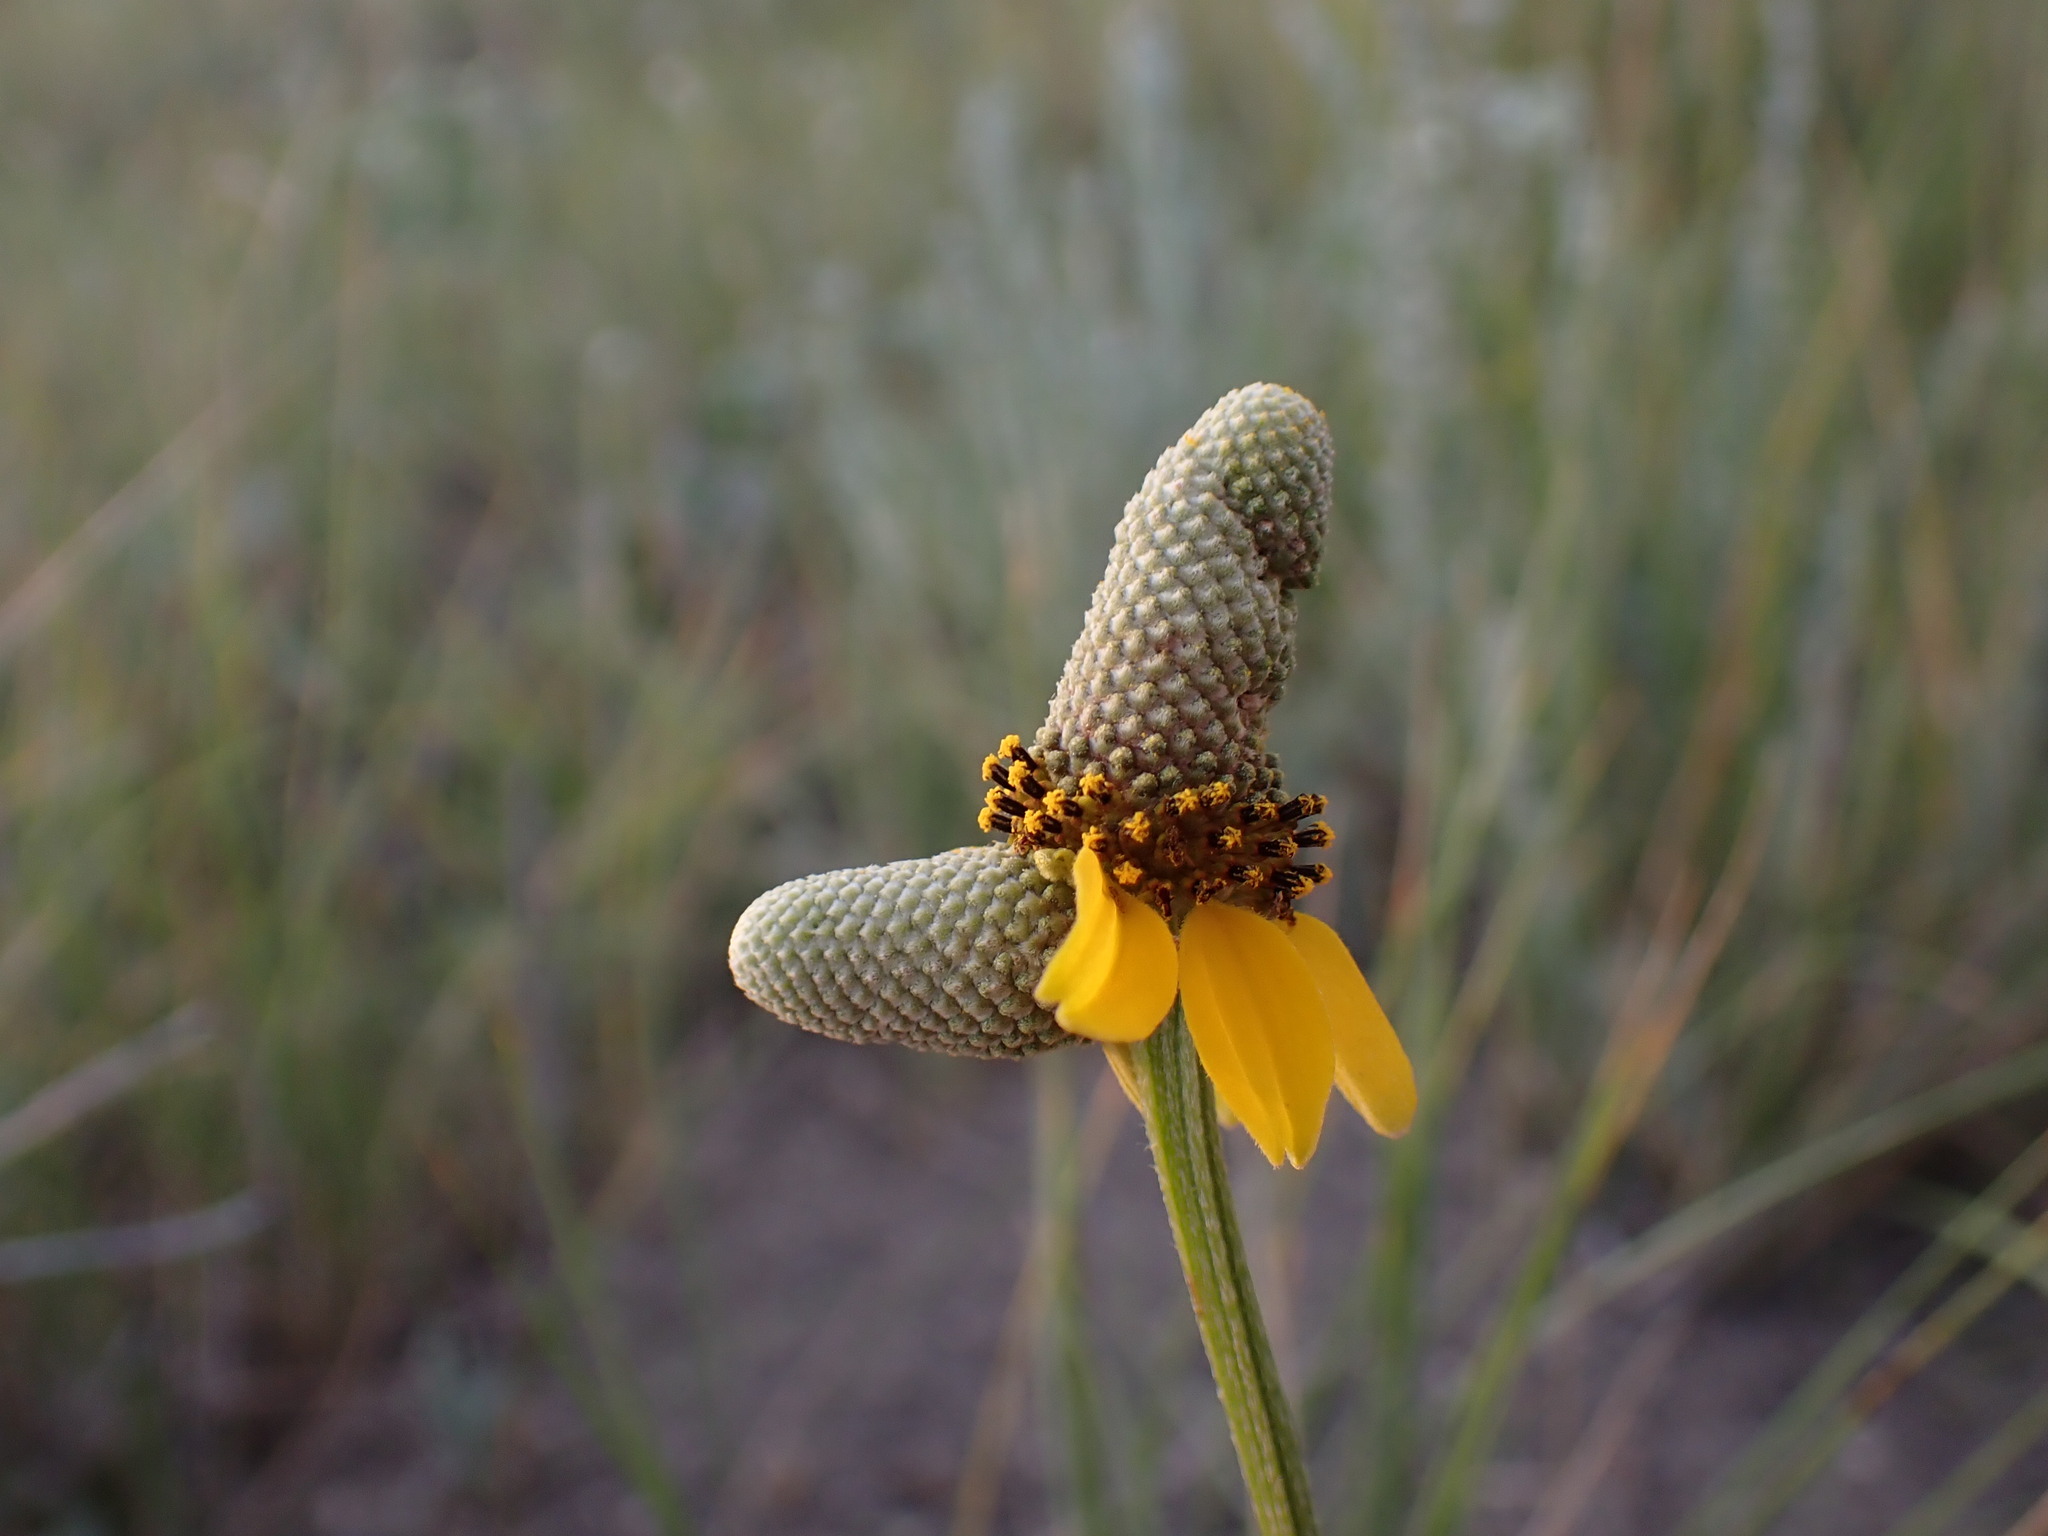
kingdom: Plantae
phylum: Tracheophyta
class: Magnoliopsida
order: Asterales
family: Asteraceae
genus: Ratibida
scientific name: Ratibida columnifera
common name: Prairie coneflower
